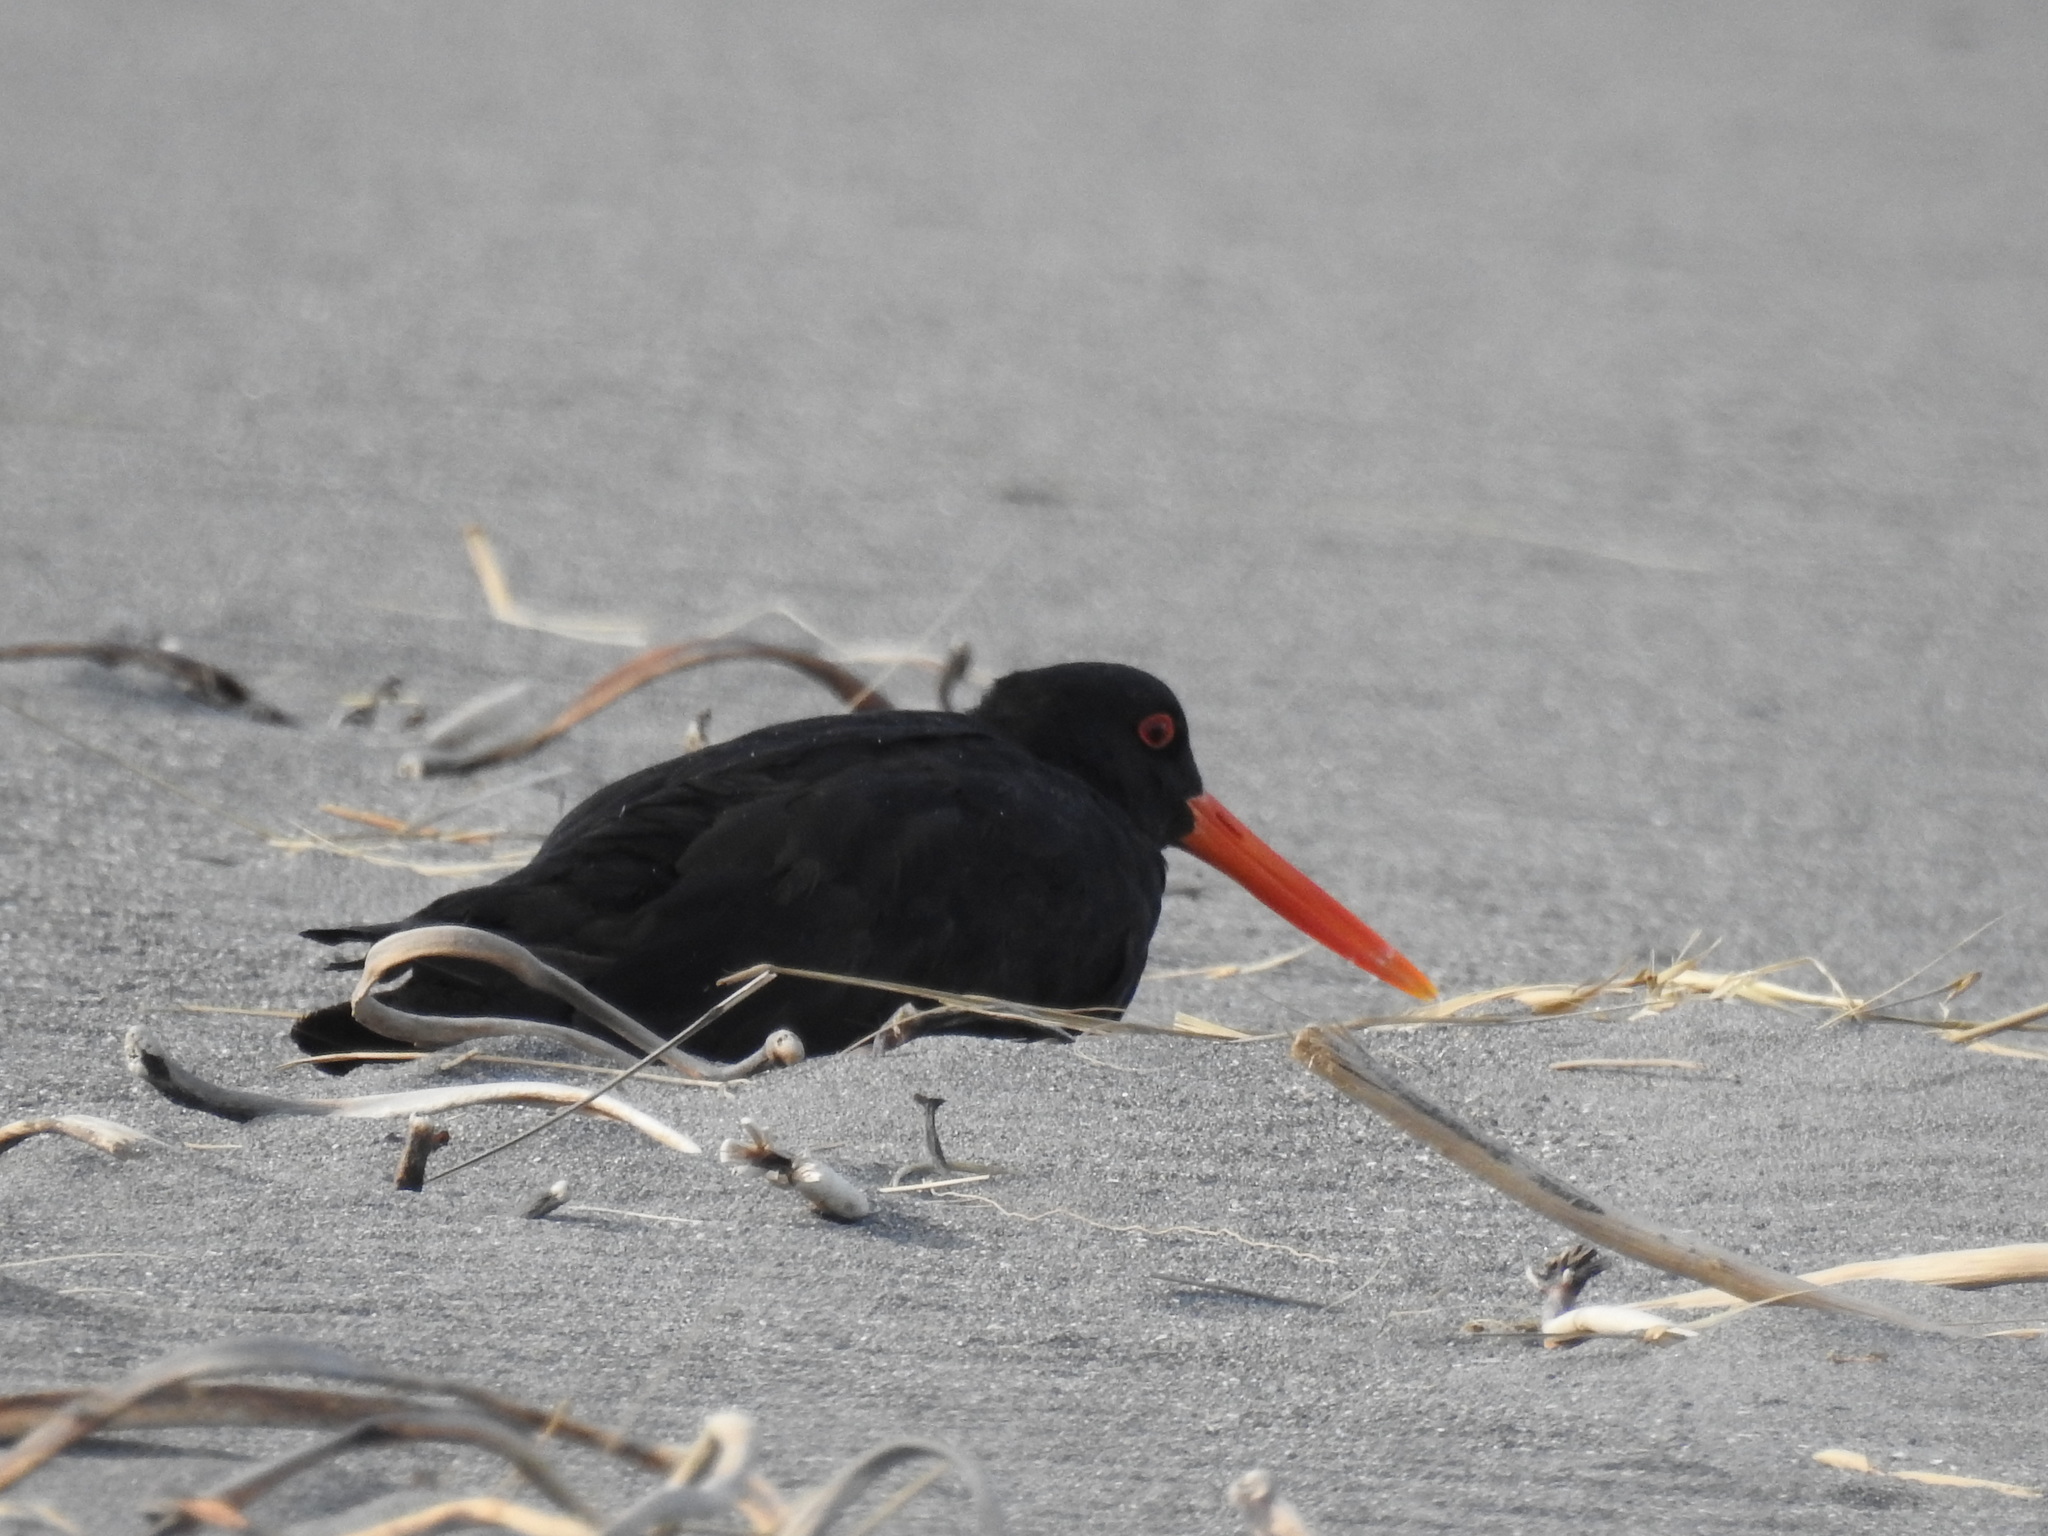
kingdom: Animalia
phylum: Chordata
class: Aves
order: Charadriiformes
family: Haematopodidae
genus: Haematopus
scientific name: Haematopus unicolor
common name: Variable oystercatcher
